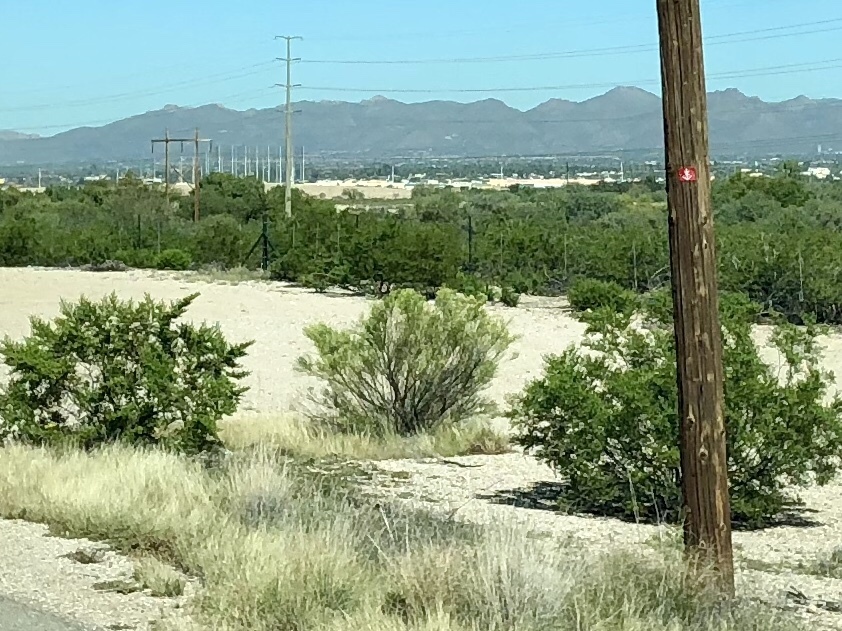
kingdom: Plantae
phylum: Tracheophyta
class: Magnoliopsida
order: Zygophyllales
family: Zygophyllaceae
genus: Larrea
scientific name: Larrea tridentata
